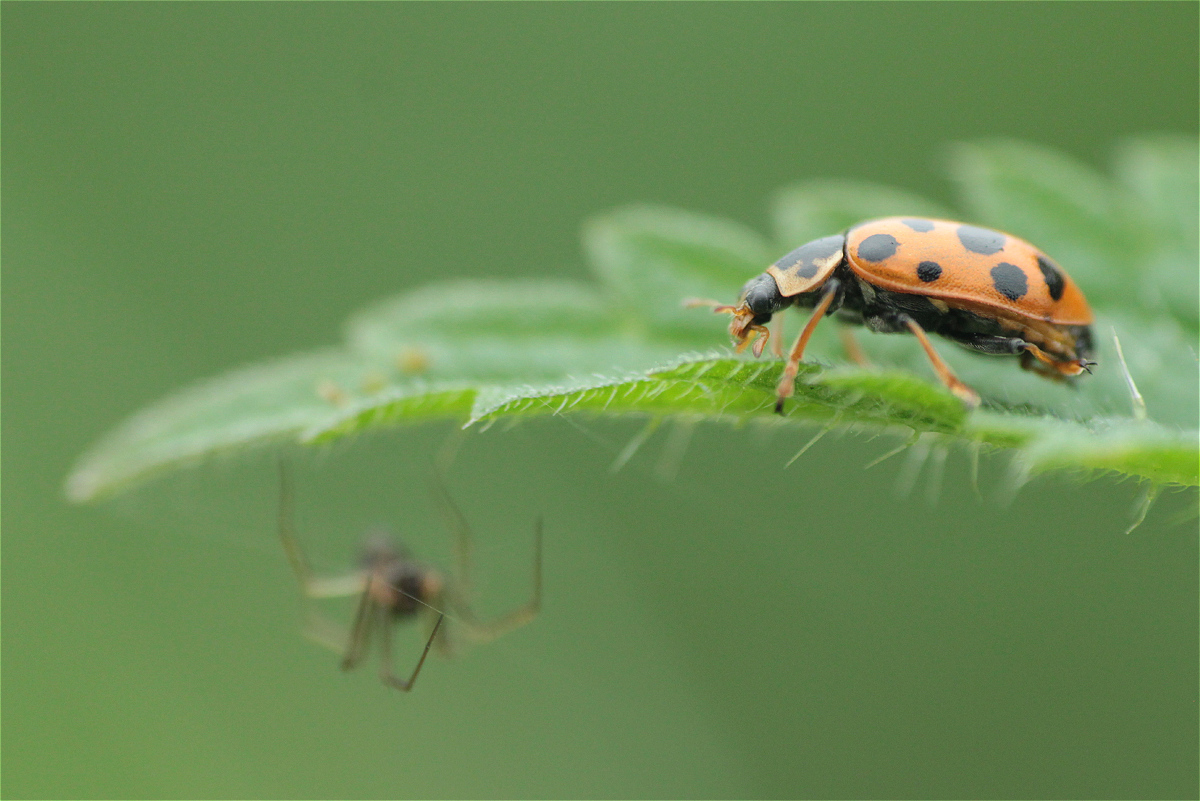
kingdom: Animalia
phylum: Arthropoda
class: Insecta
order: Coleoptera
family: Coccinellidae
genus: Hippodamia
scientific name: Hippodamia tredecimpunctata
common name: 13-spot ladybird
